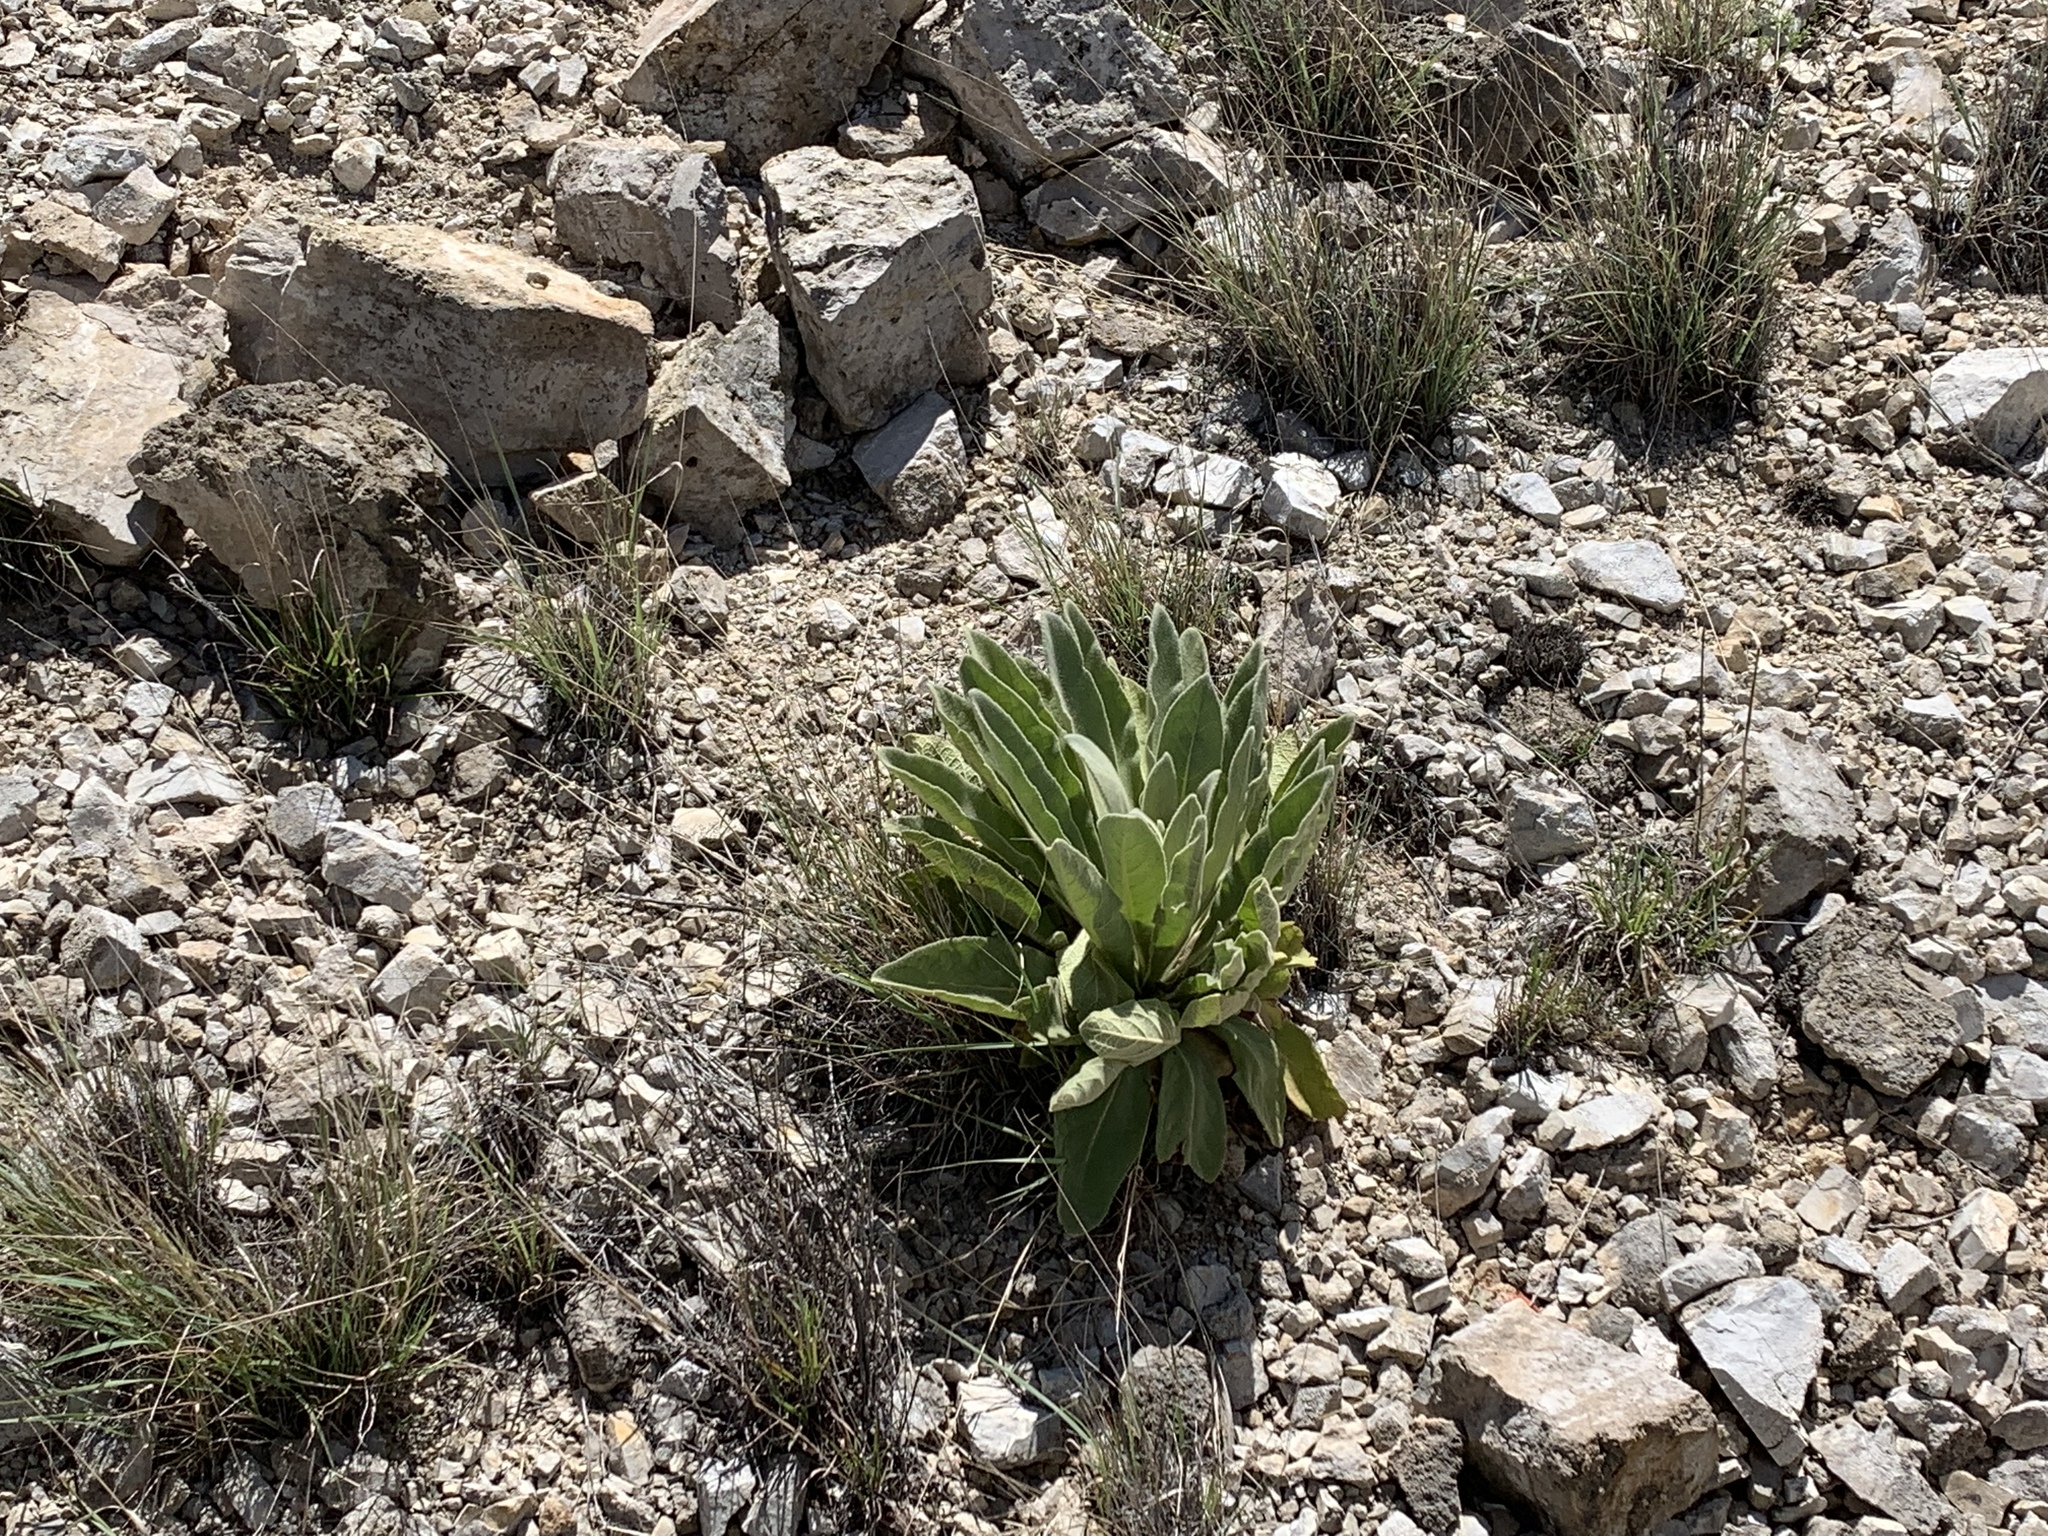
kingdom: Plantae
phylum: Tracheophyta
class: Magnoliopsida
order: Lamiales
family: Scrophulariaceae
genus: Verbascum
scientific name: Verbascum thapsus
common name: Common mullein
